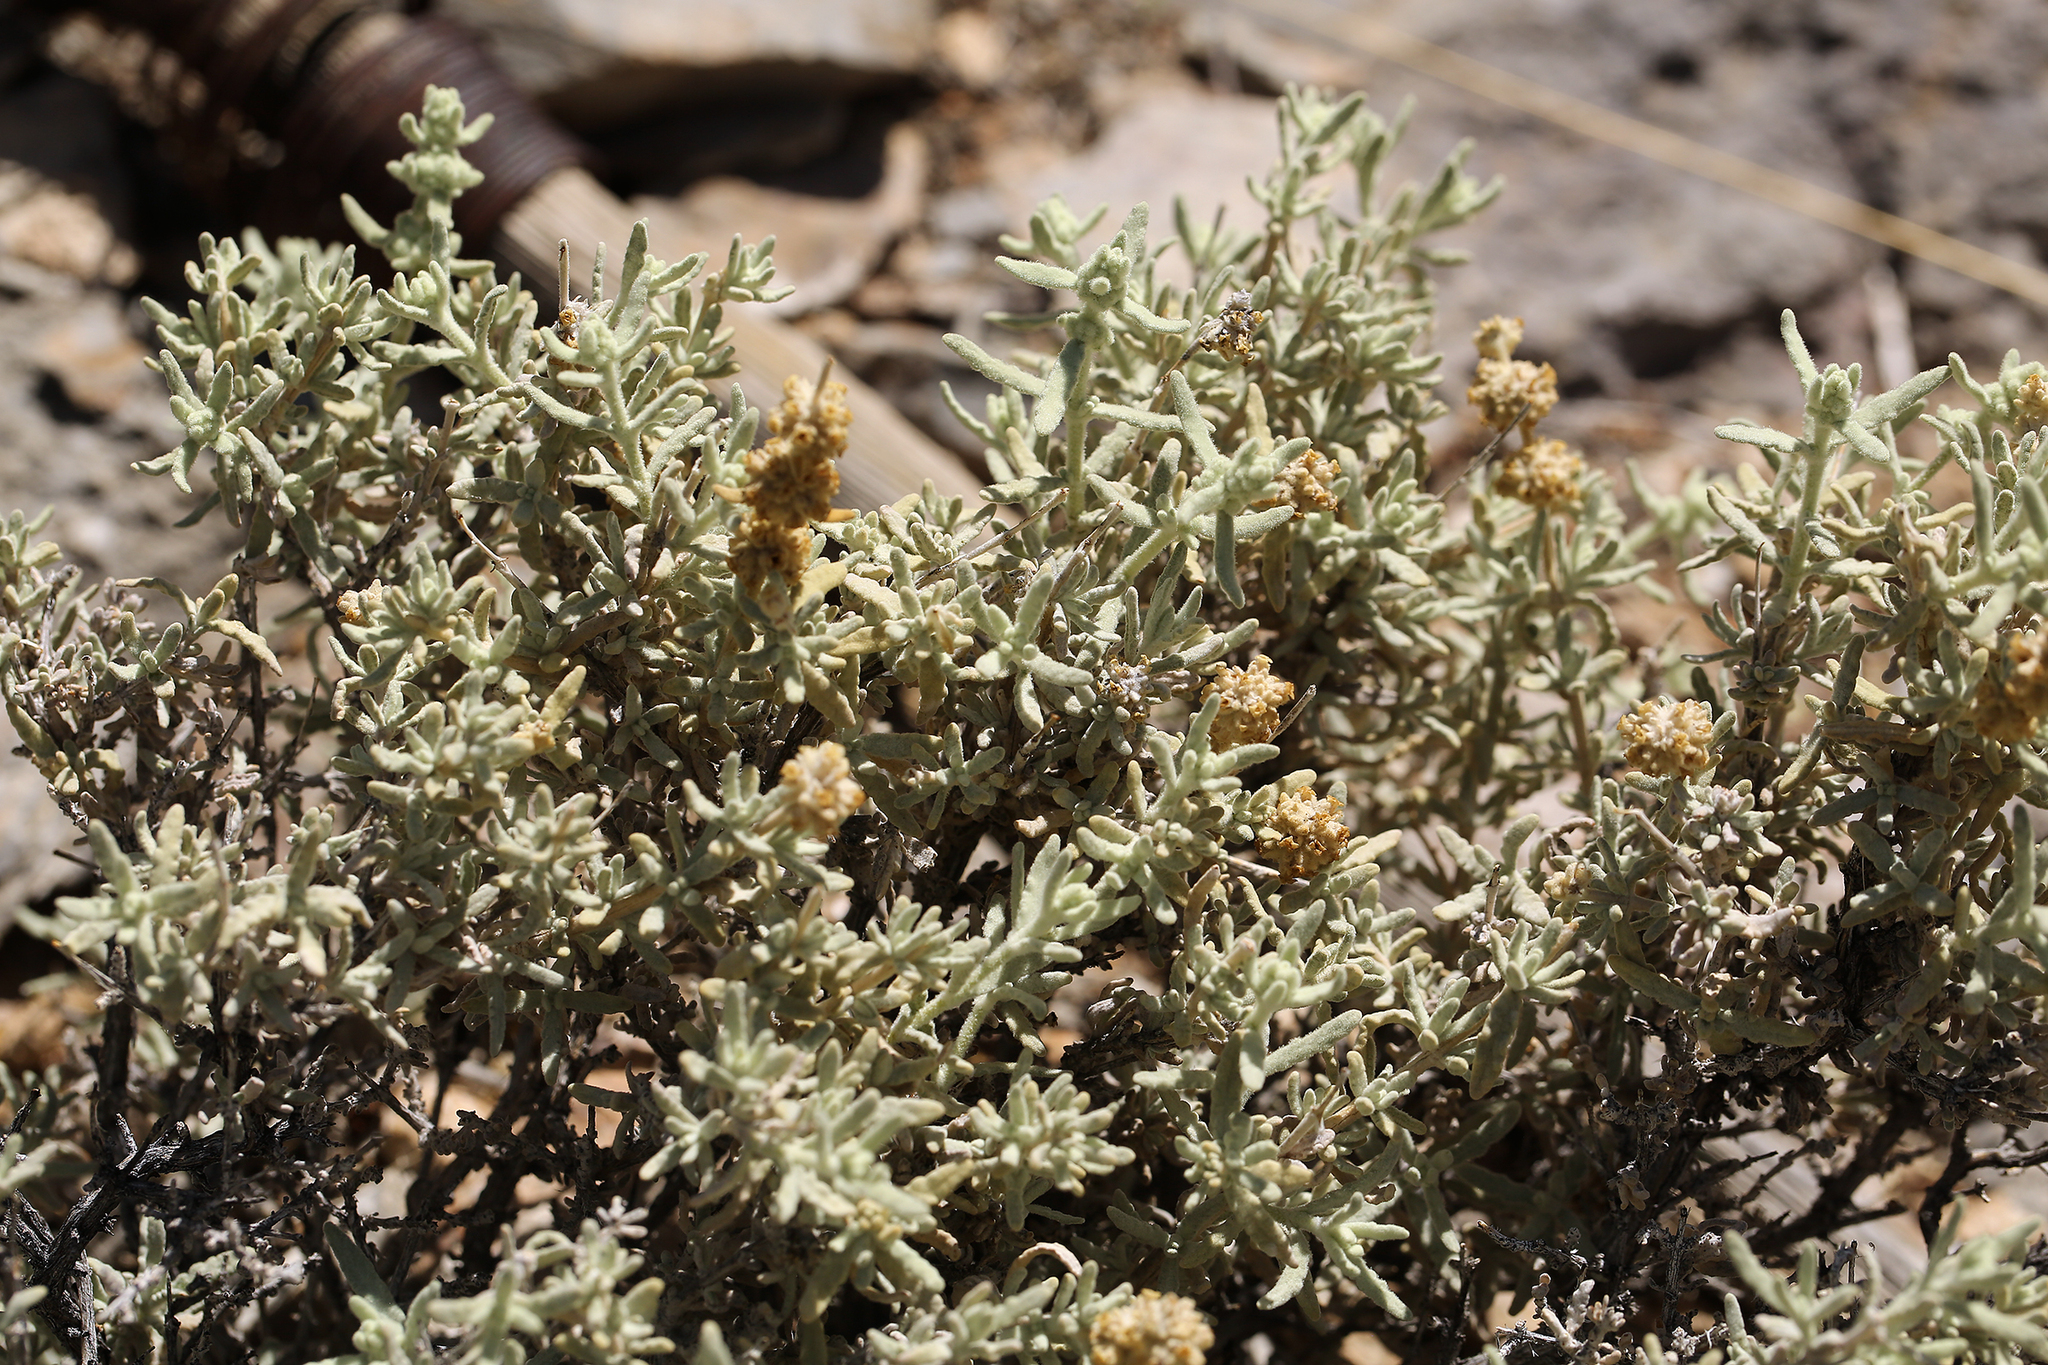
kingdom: Plantae
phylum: Tracheophyta
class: Magnoliopsida
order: Lamiales
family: Scrophulariaceae
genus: Buddleja
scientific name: Buddleja utahensis
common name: Utah butterfly-bush
